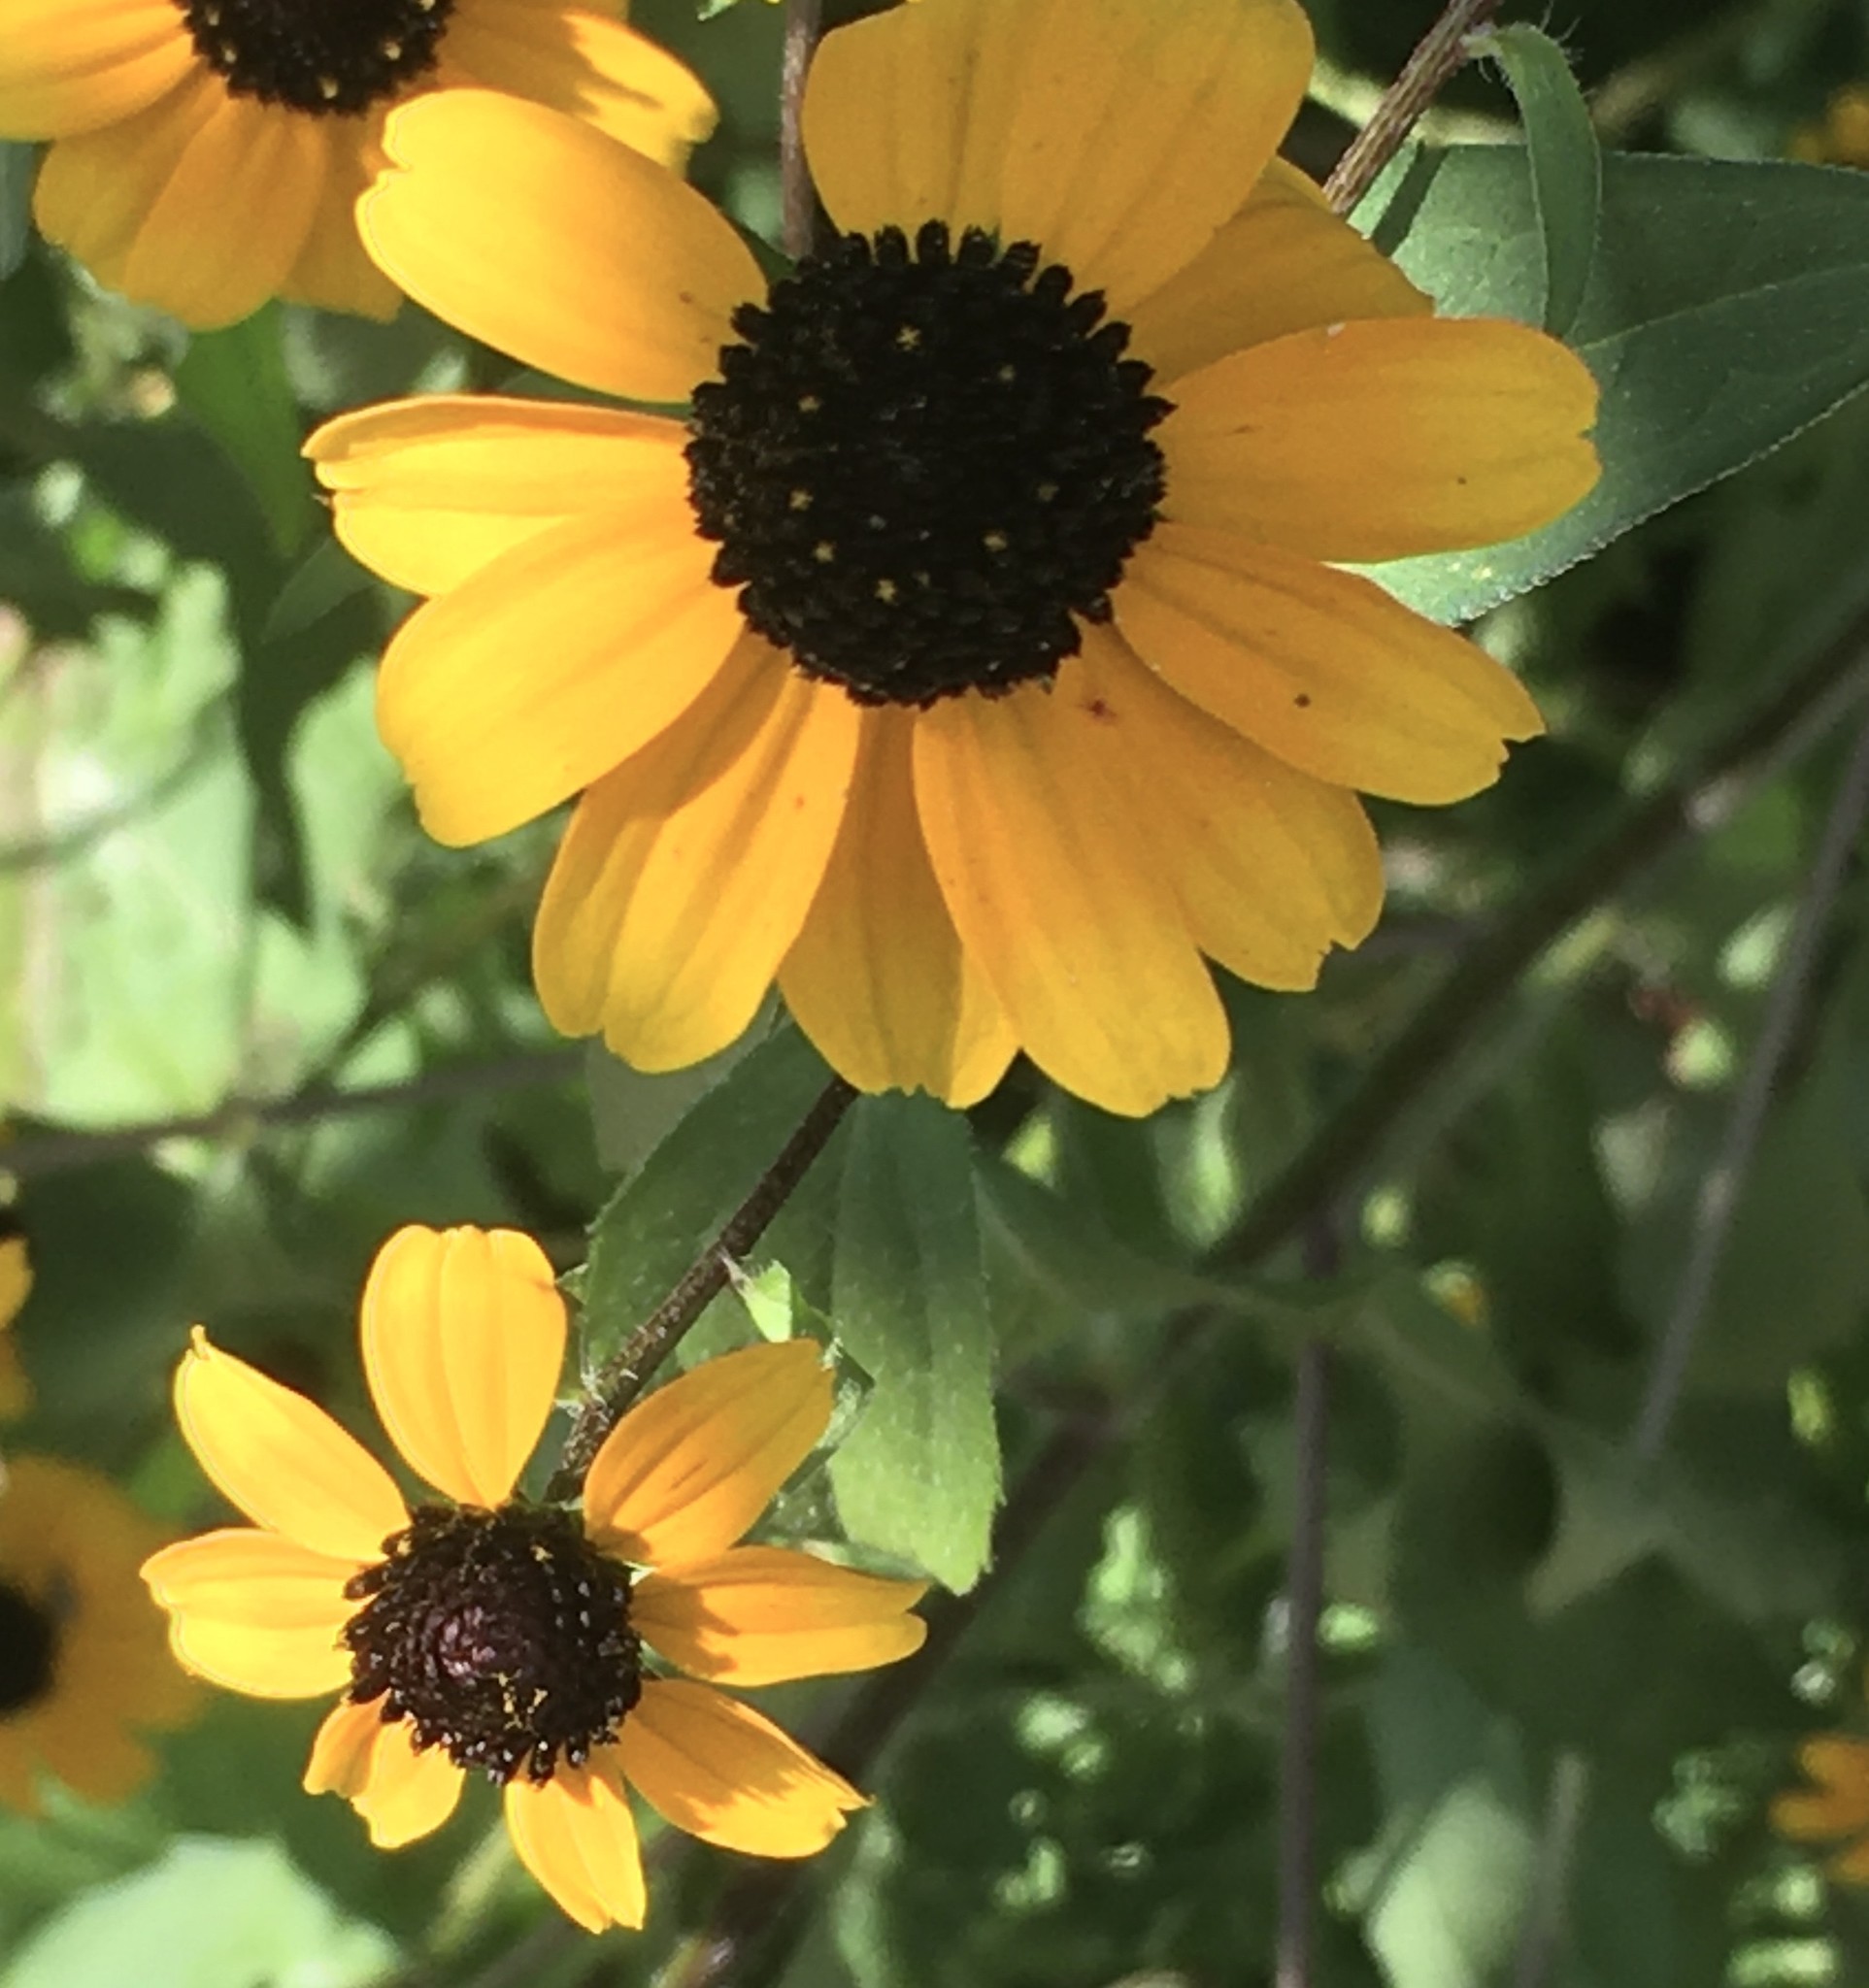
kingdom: Plantae
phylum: Tracheophyta
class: Magnoliopsida
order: Asterales
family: Asteraceae
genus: Rudbeckia
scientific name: Rudbeckia triloba
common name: Thin-leaved coneflower
